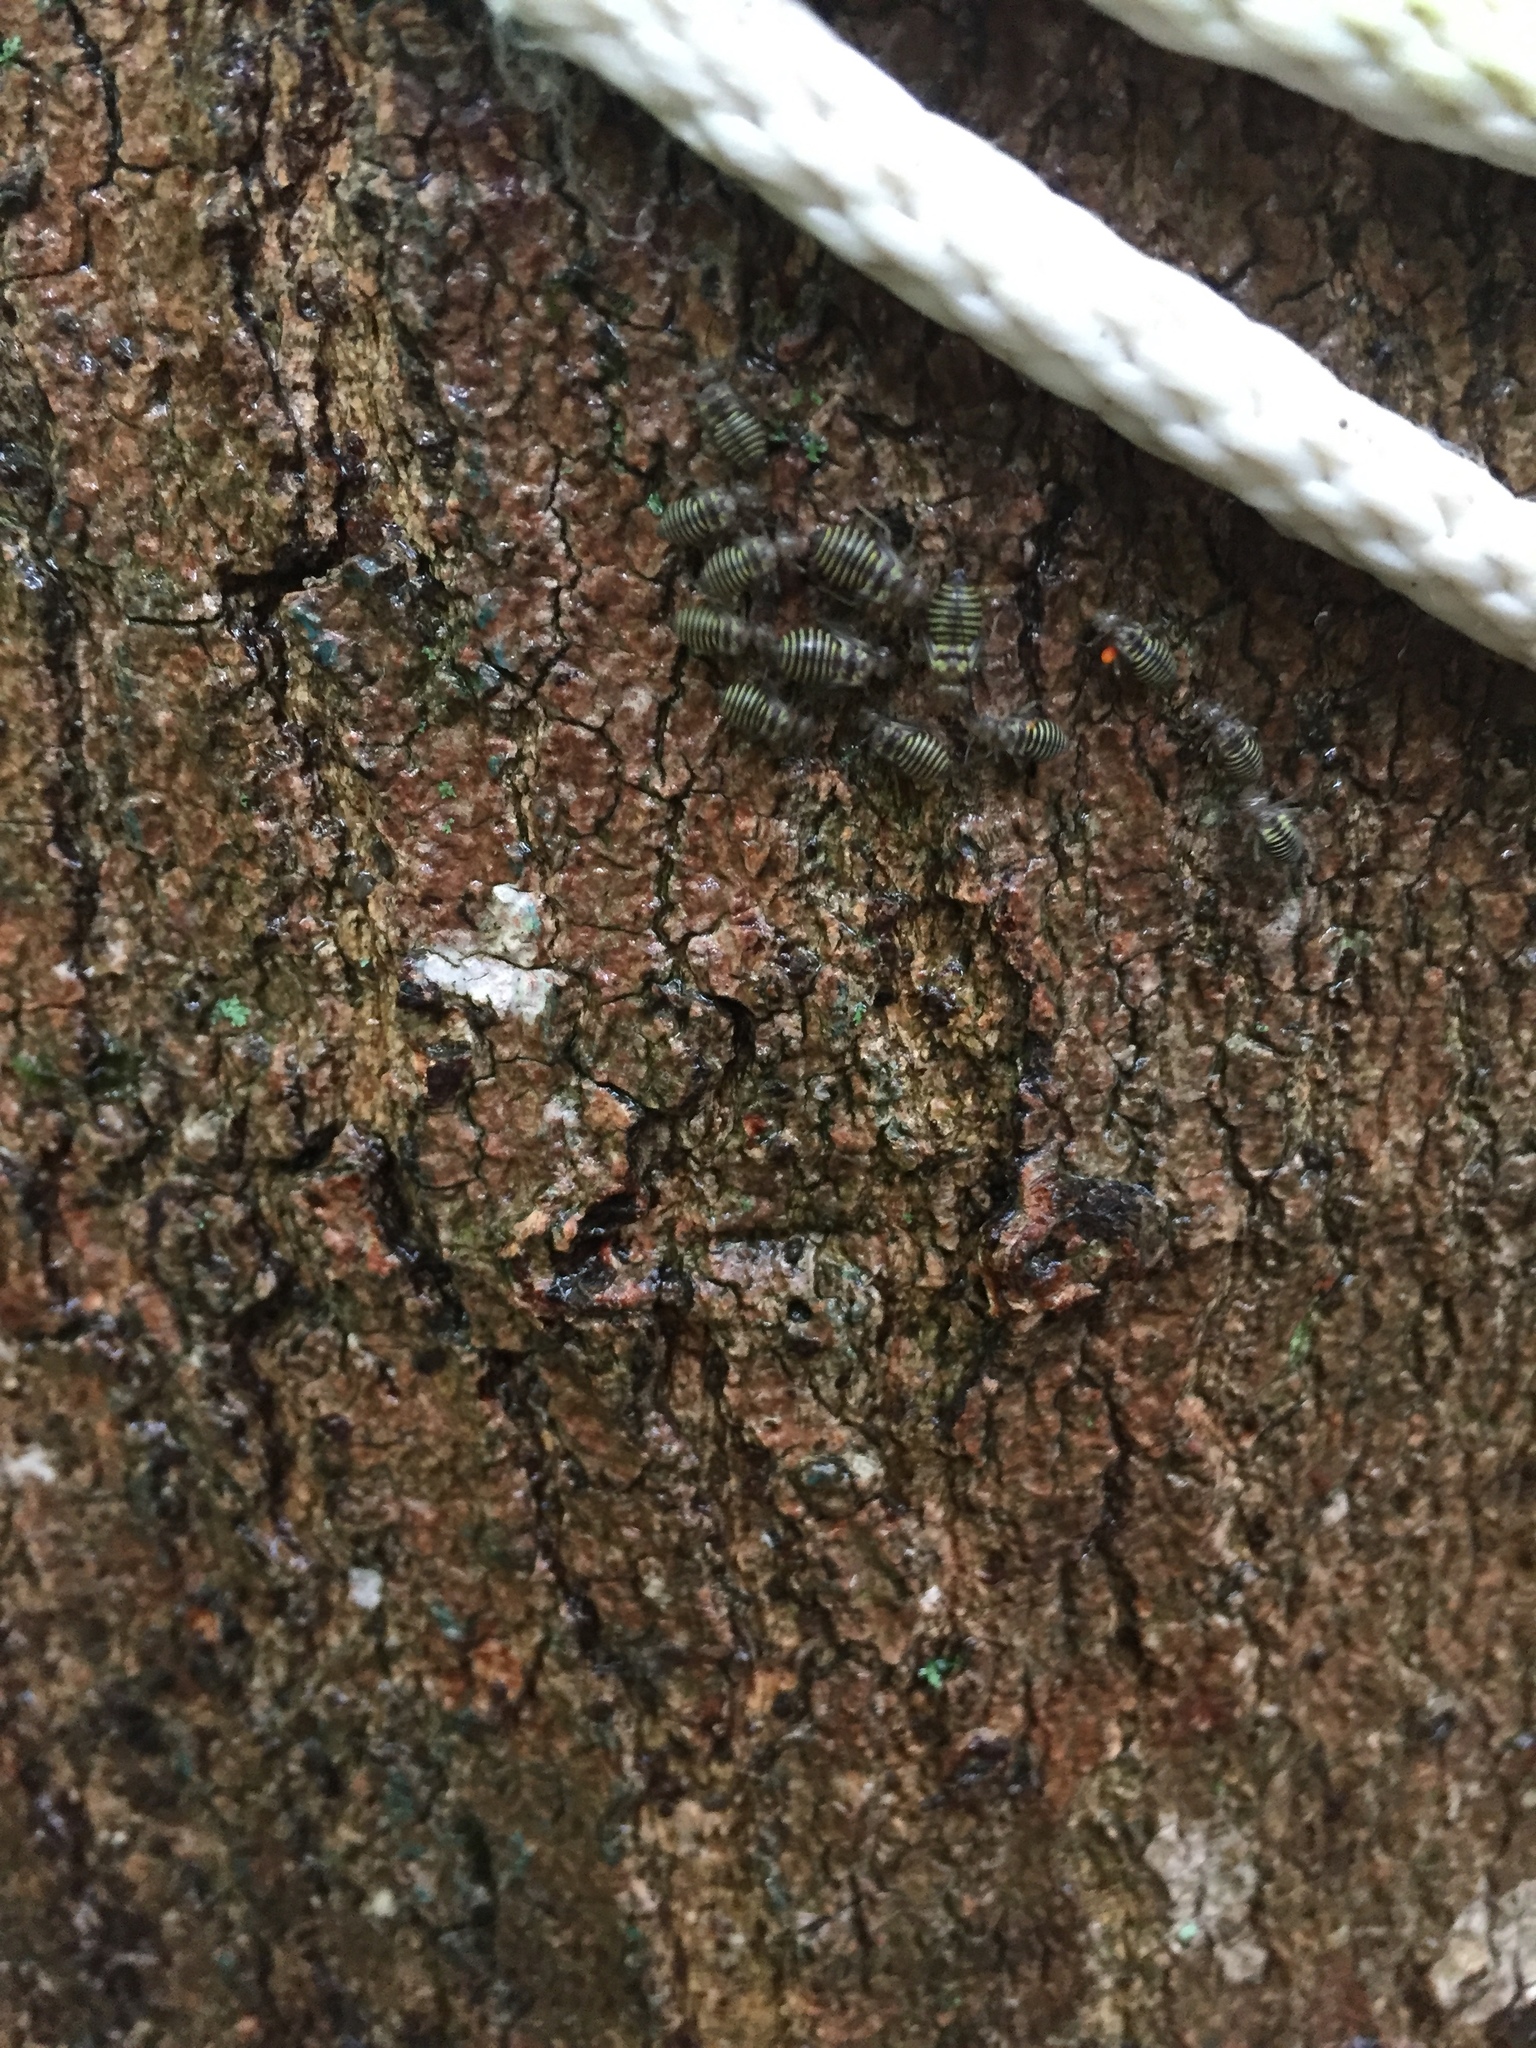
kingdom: Animalia
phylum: Arthropoda
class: Insecta
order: Psocodea
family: Psocidae
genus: Cerastipsocus
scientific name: Cerastipsocus venosus
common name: Tree cattle
